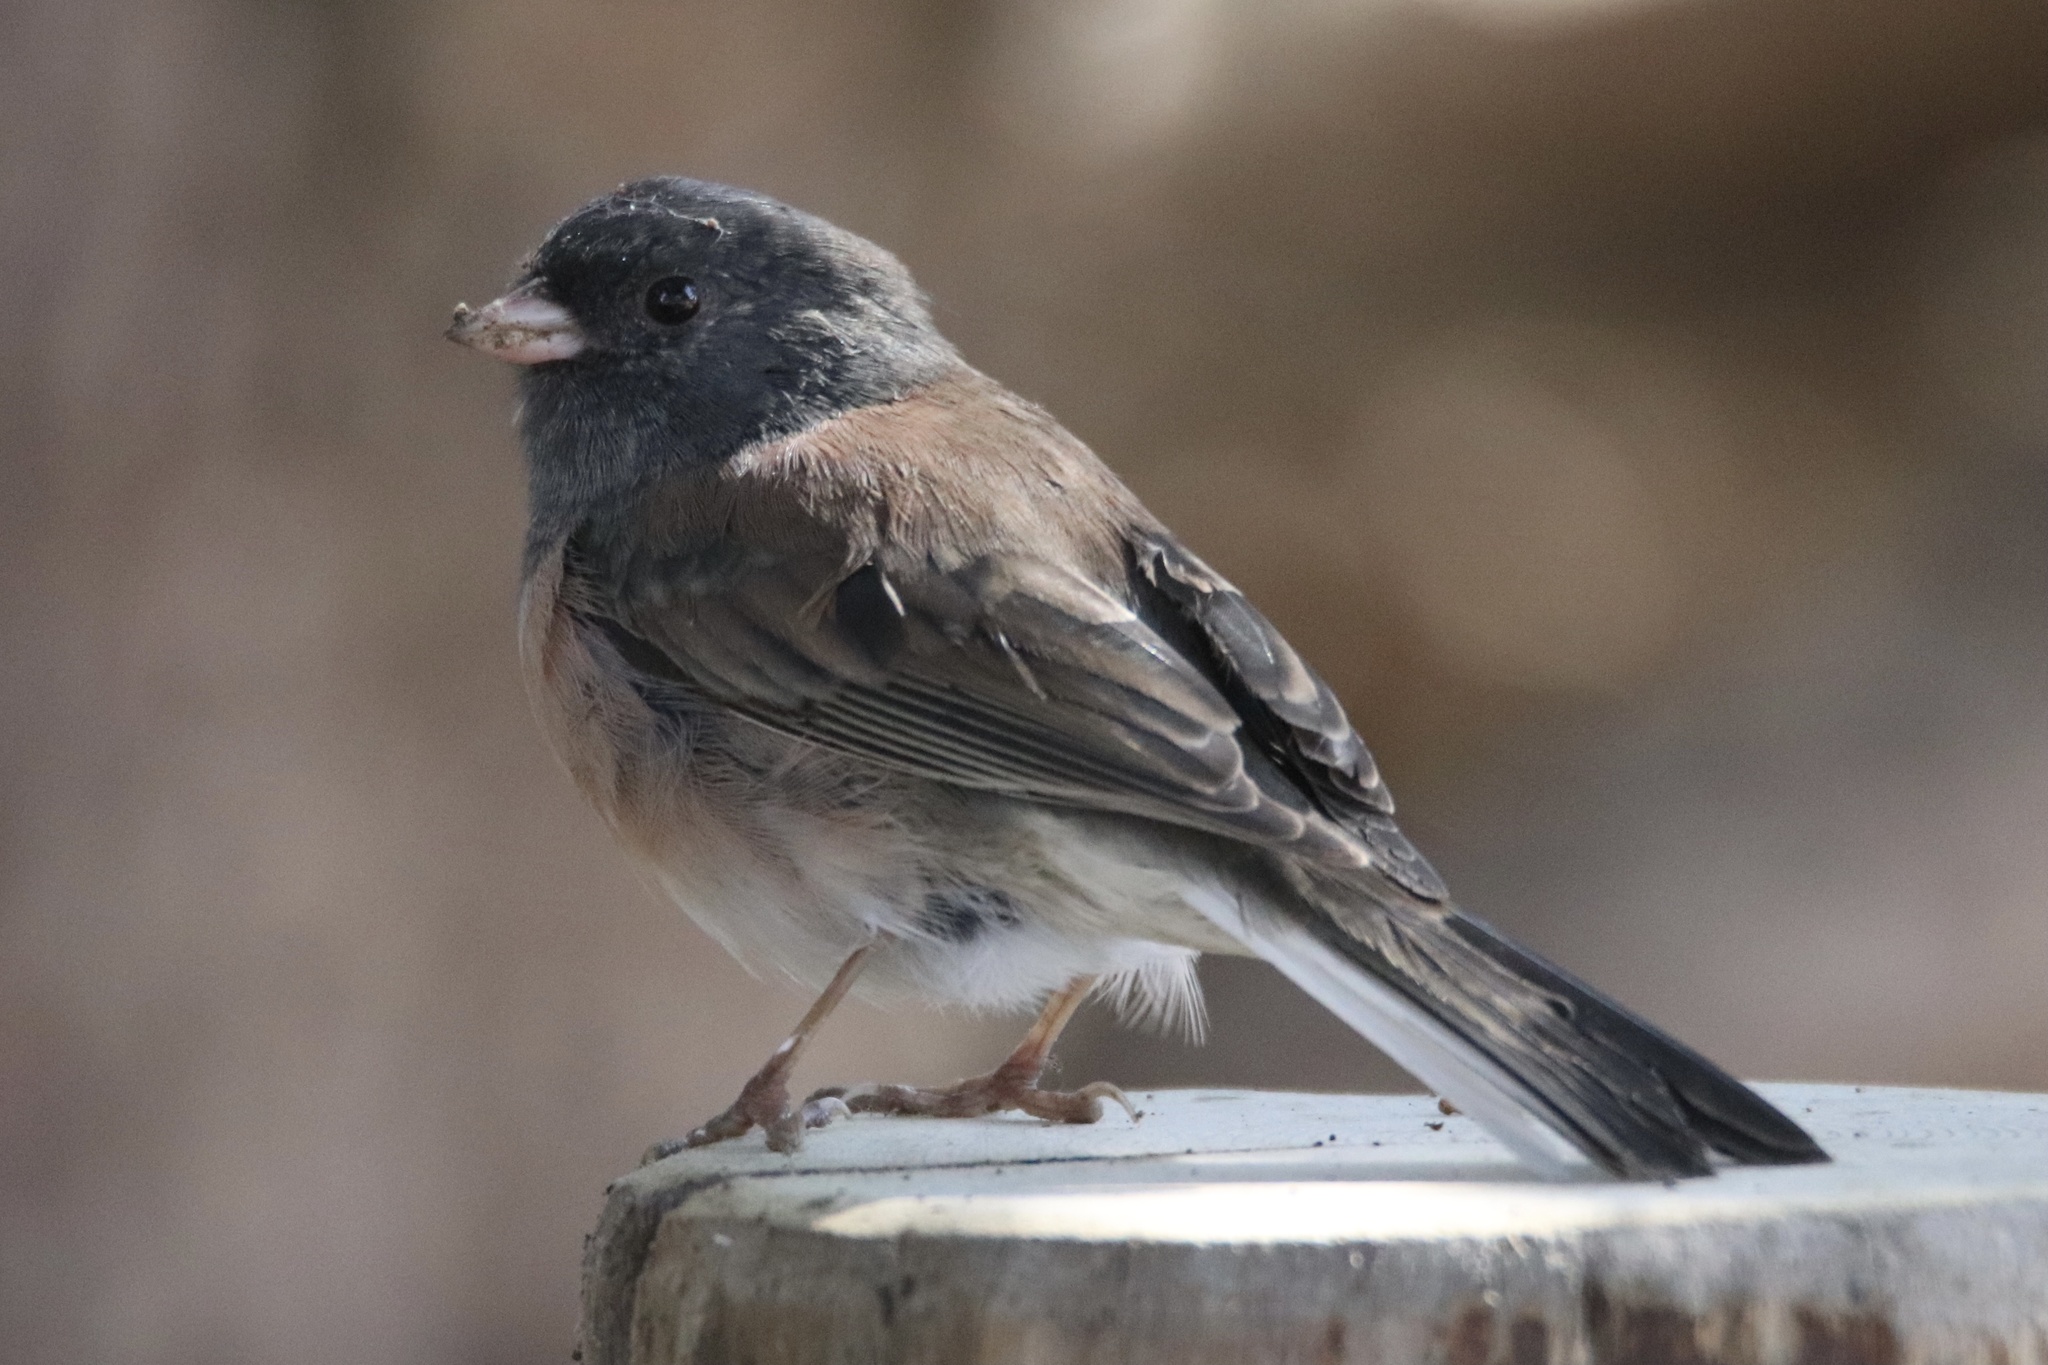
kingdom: Animalia
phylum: Chordata
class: Aves
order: Passeriformes
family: Passerellidae
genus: Junco
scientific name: Junco hyemalis
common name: Dark-eyed junco
